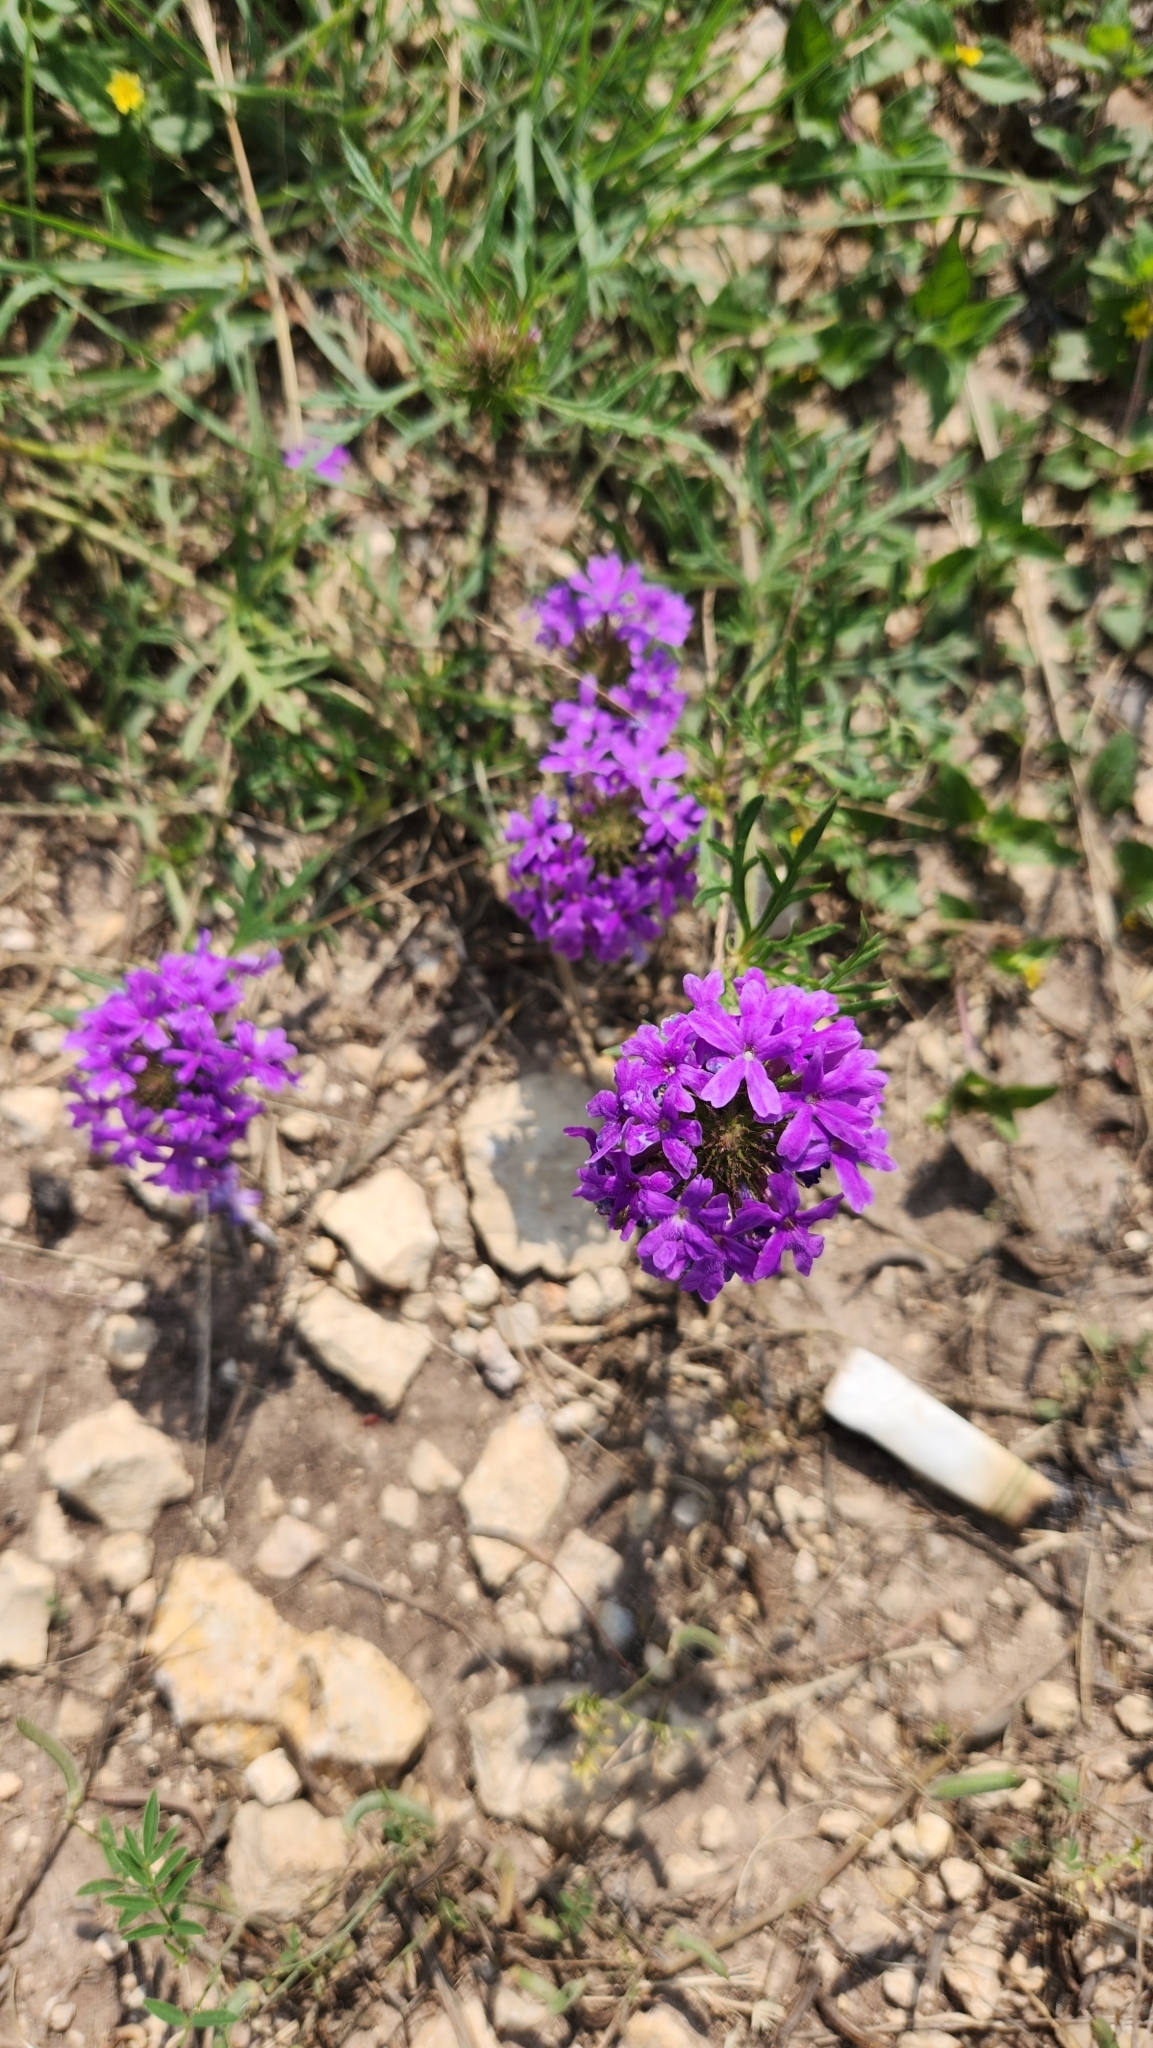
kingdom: Plantae
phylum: Tracheophyta
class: Magnoliopsida
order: Lamiales
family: Verbenaceae
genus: Verbena
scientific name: Verbena bipinnatifida
